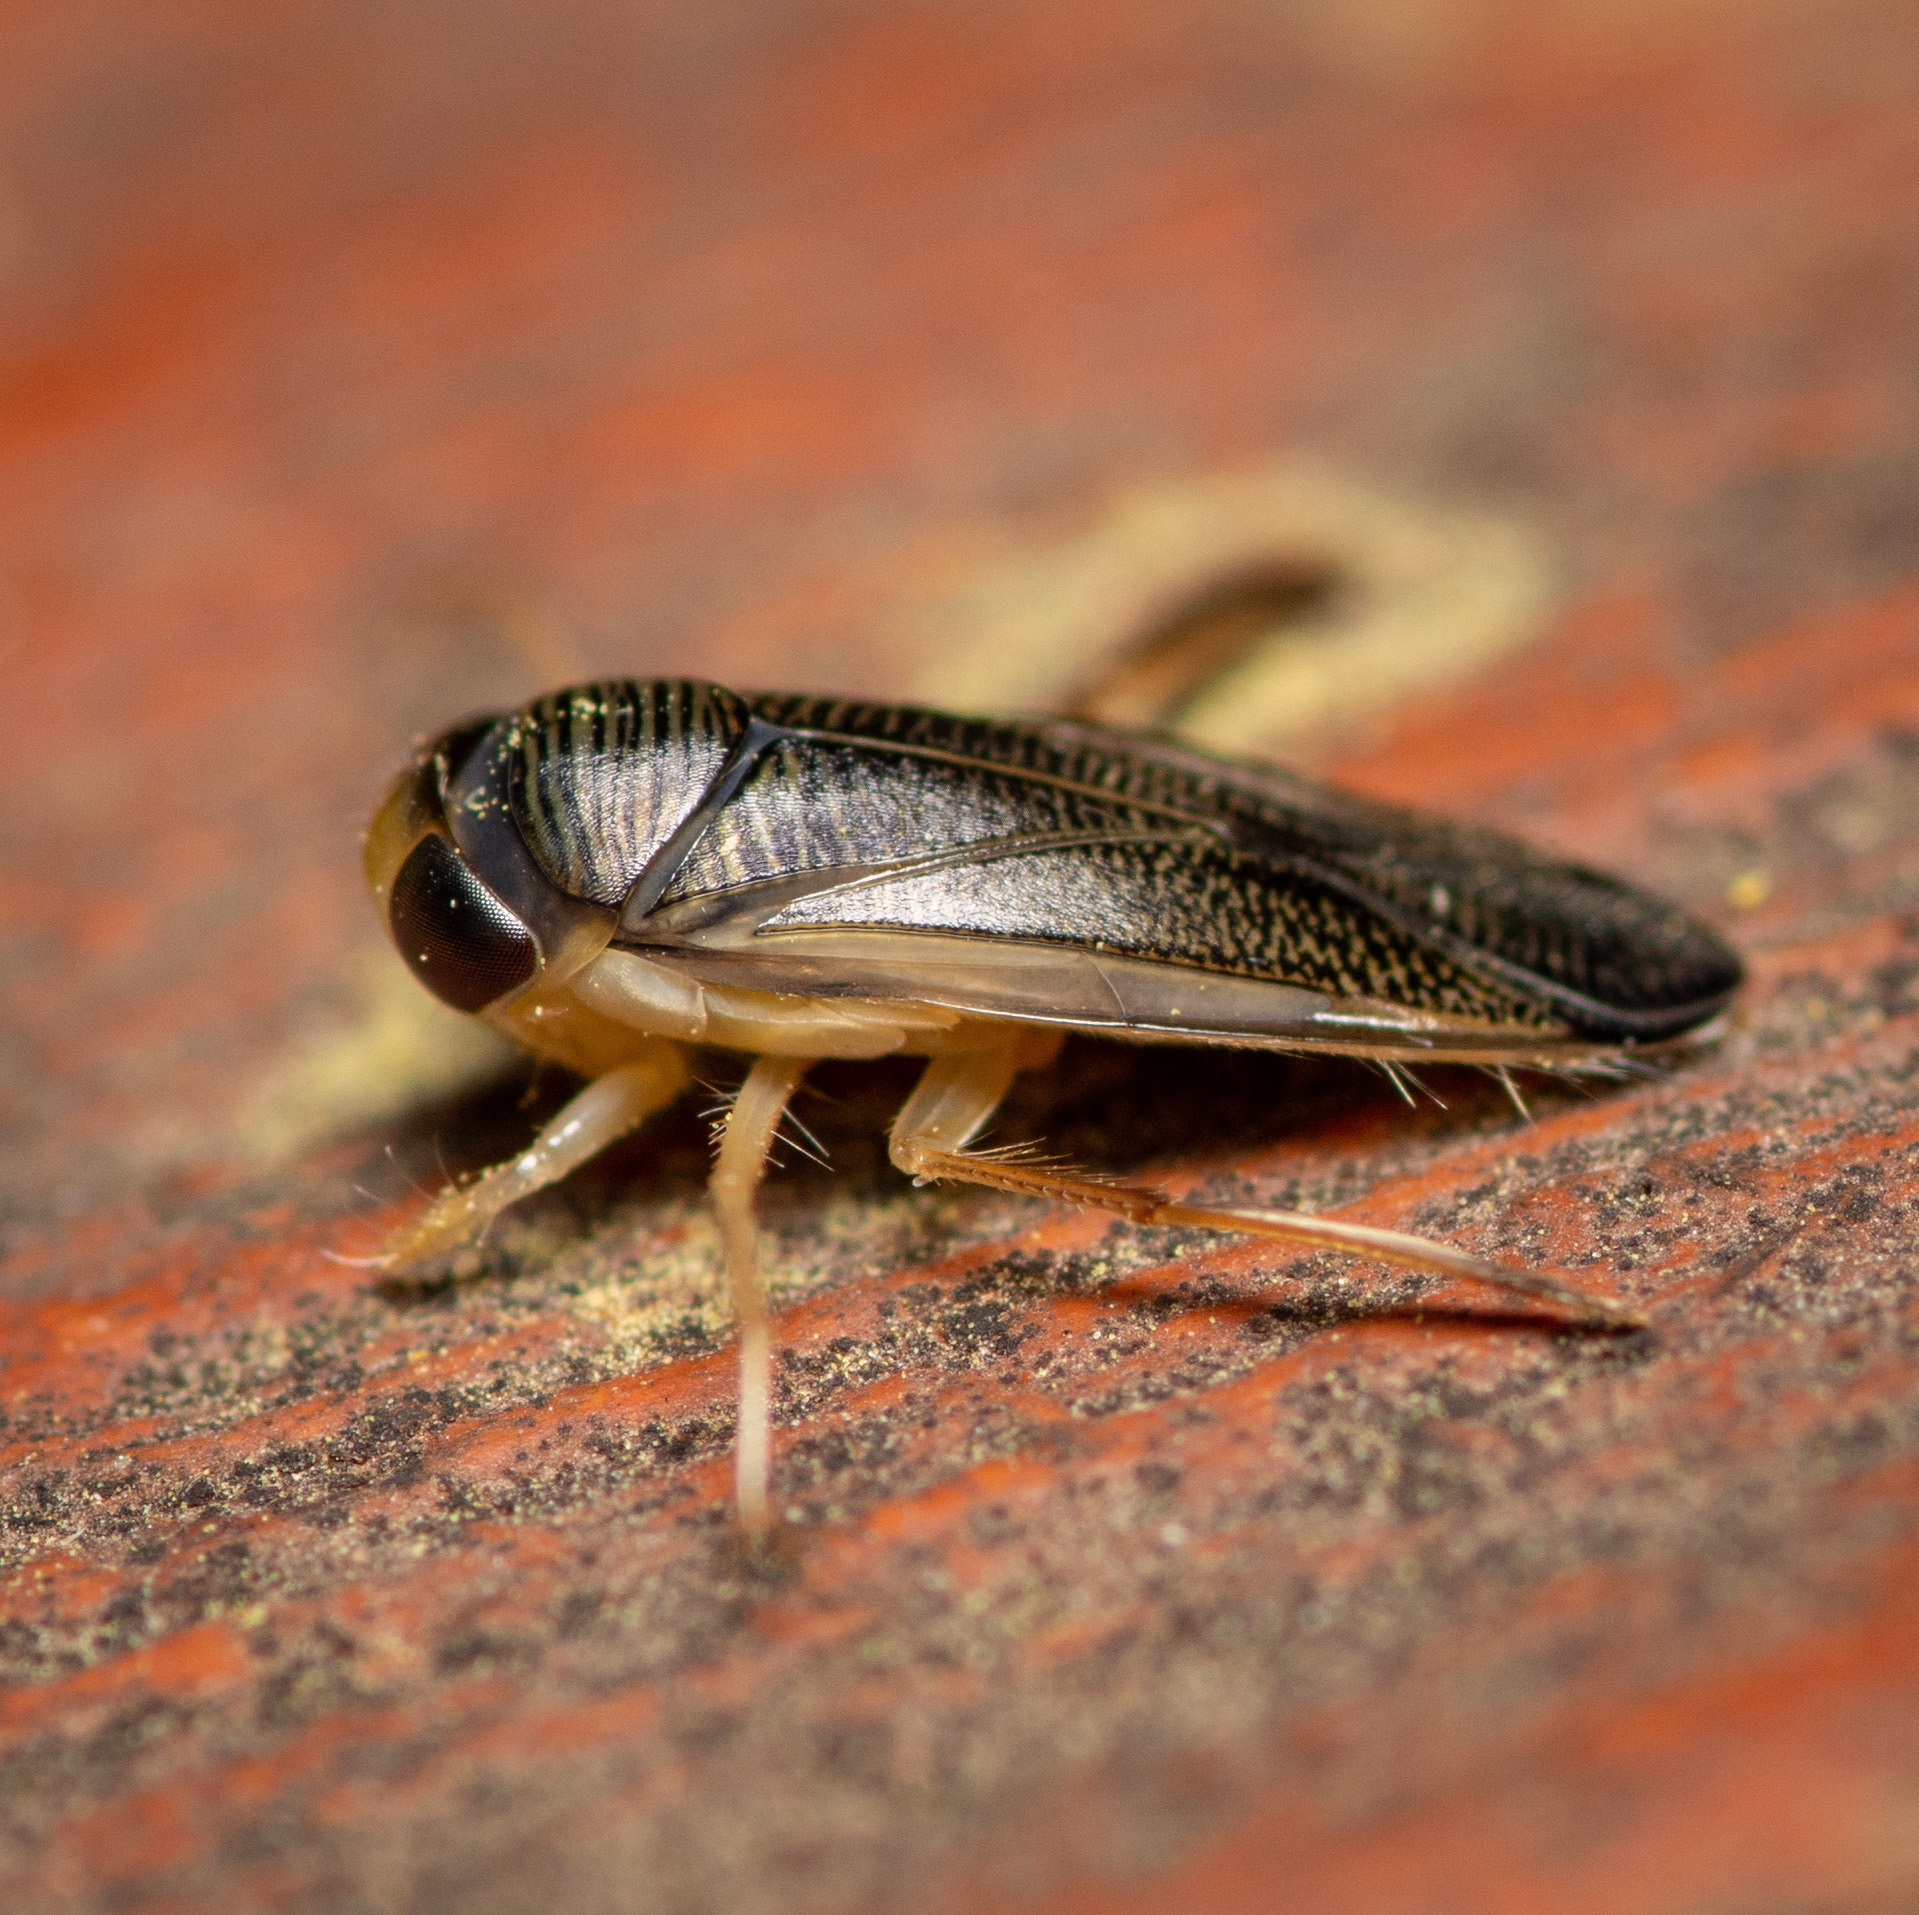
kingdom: Animalia
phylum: Arthropoda
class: Insecta
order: Hemiptera
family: Corixidae
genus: Sigara
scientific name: Sigara
